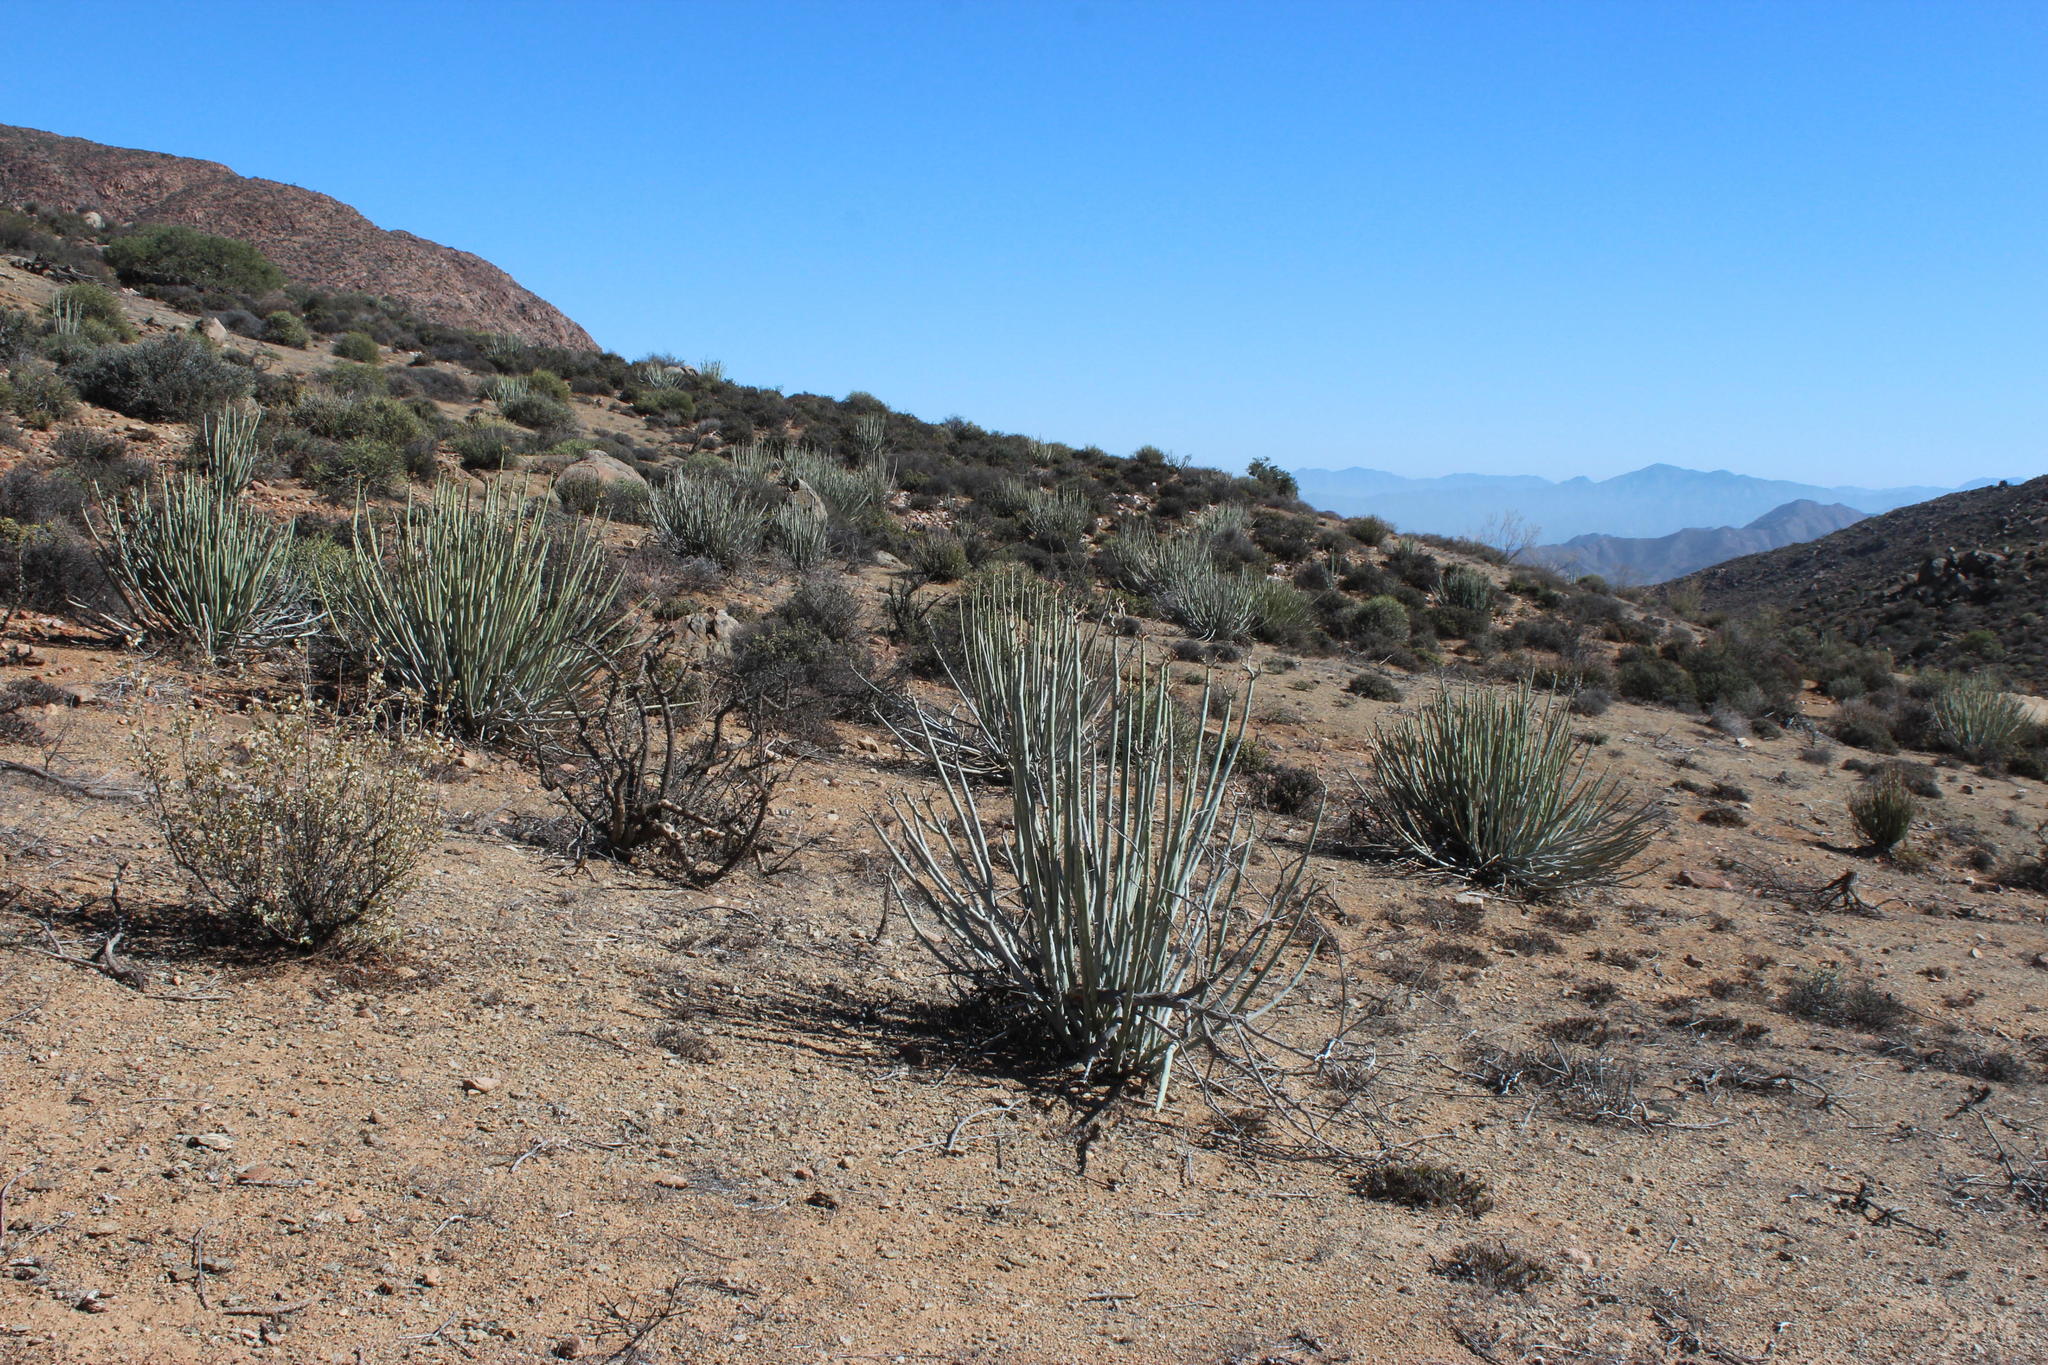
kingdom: Plantae
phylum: Tracheophyta
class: Magnoliopsida
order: Malpighiales
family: Euphorbiaceae
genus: Euphorbia
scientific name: Euphorbia dregeana
